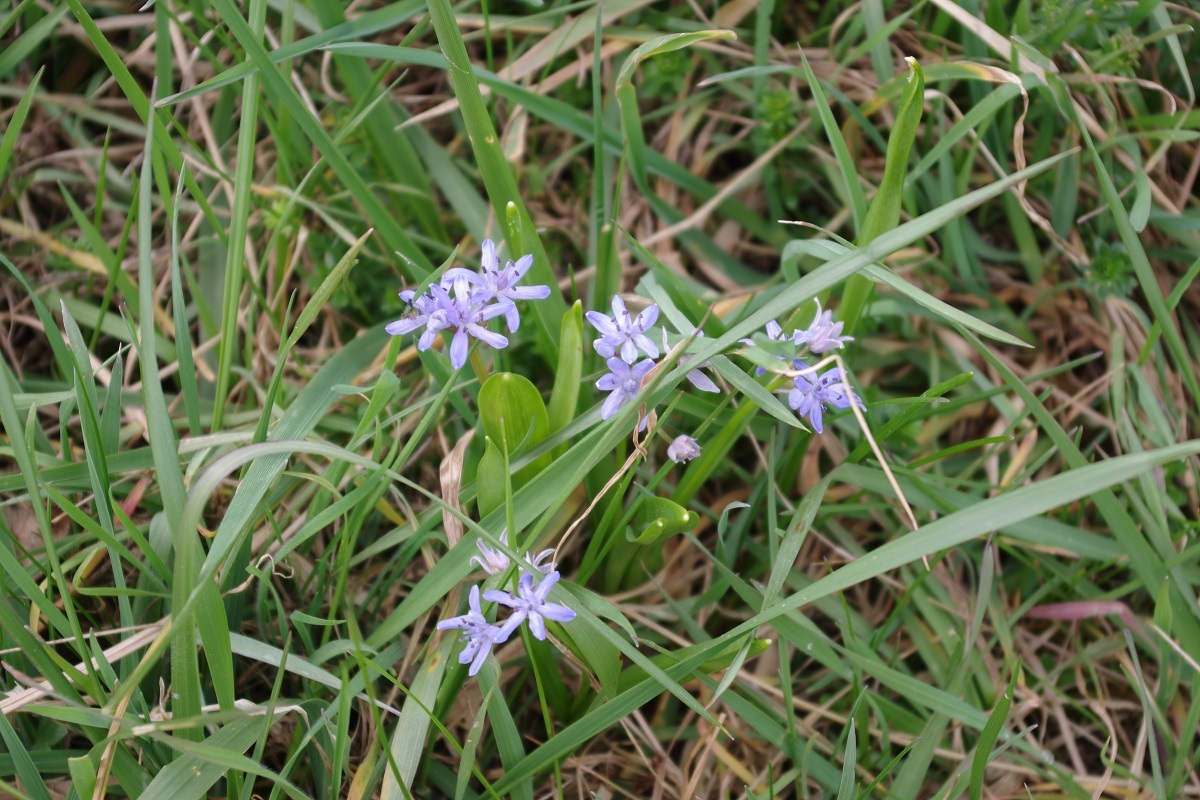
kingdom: Plantae
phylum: Tracheophyta
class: Liliopsida
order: Asparagales
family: Asparagaceae
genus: Scilla
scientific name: Scilla bifolia
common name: Alpine squill
